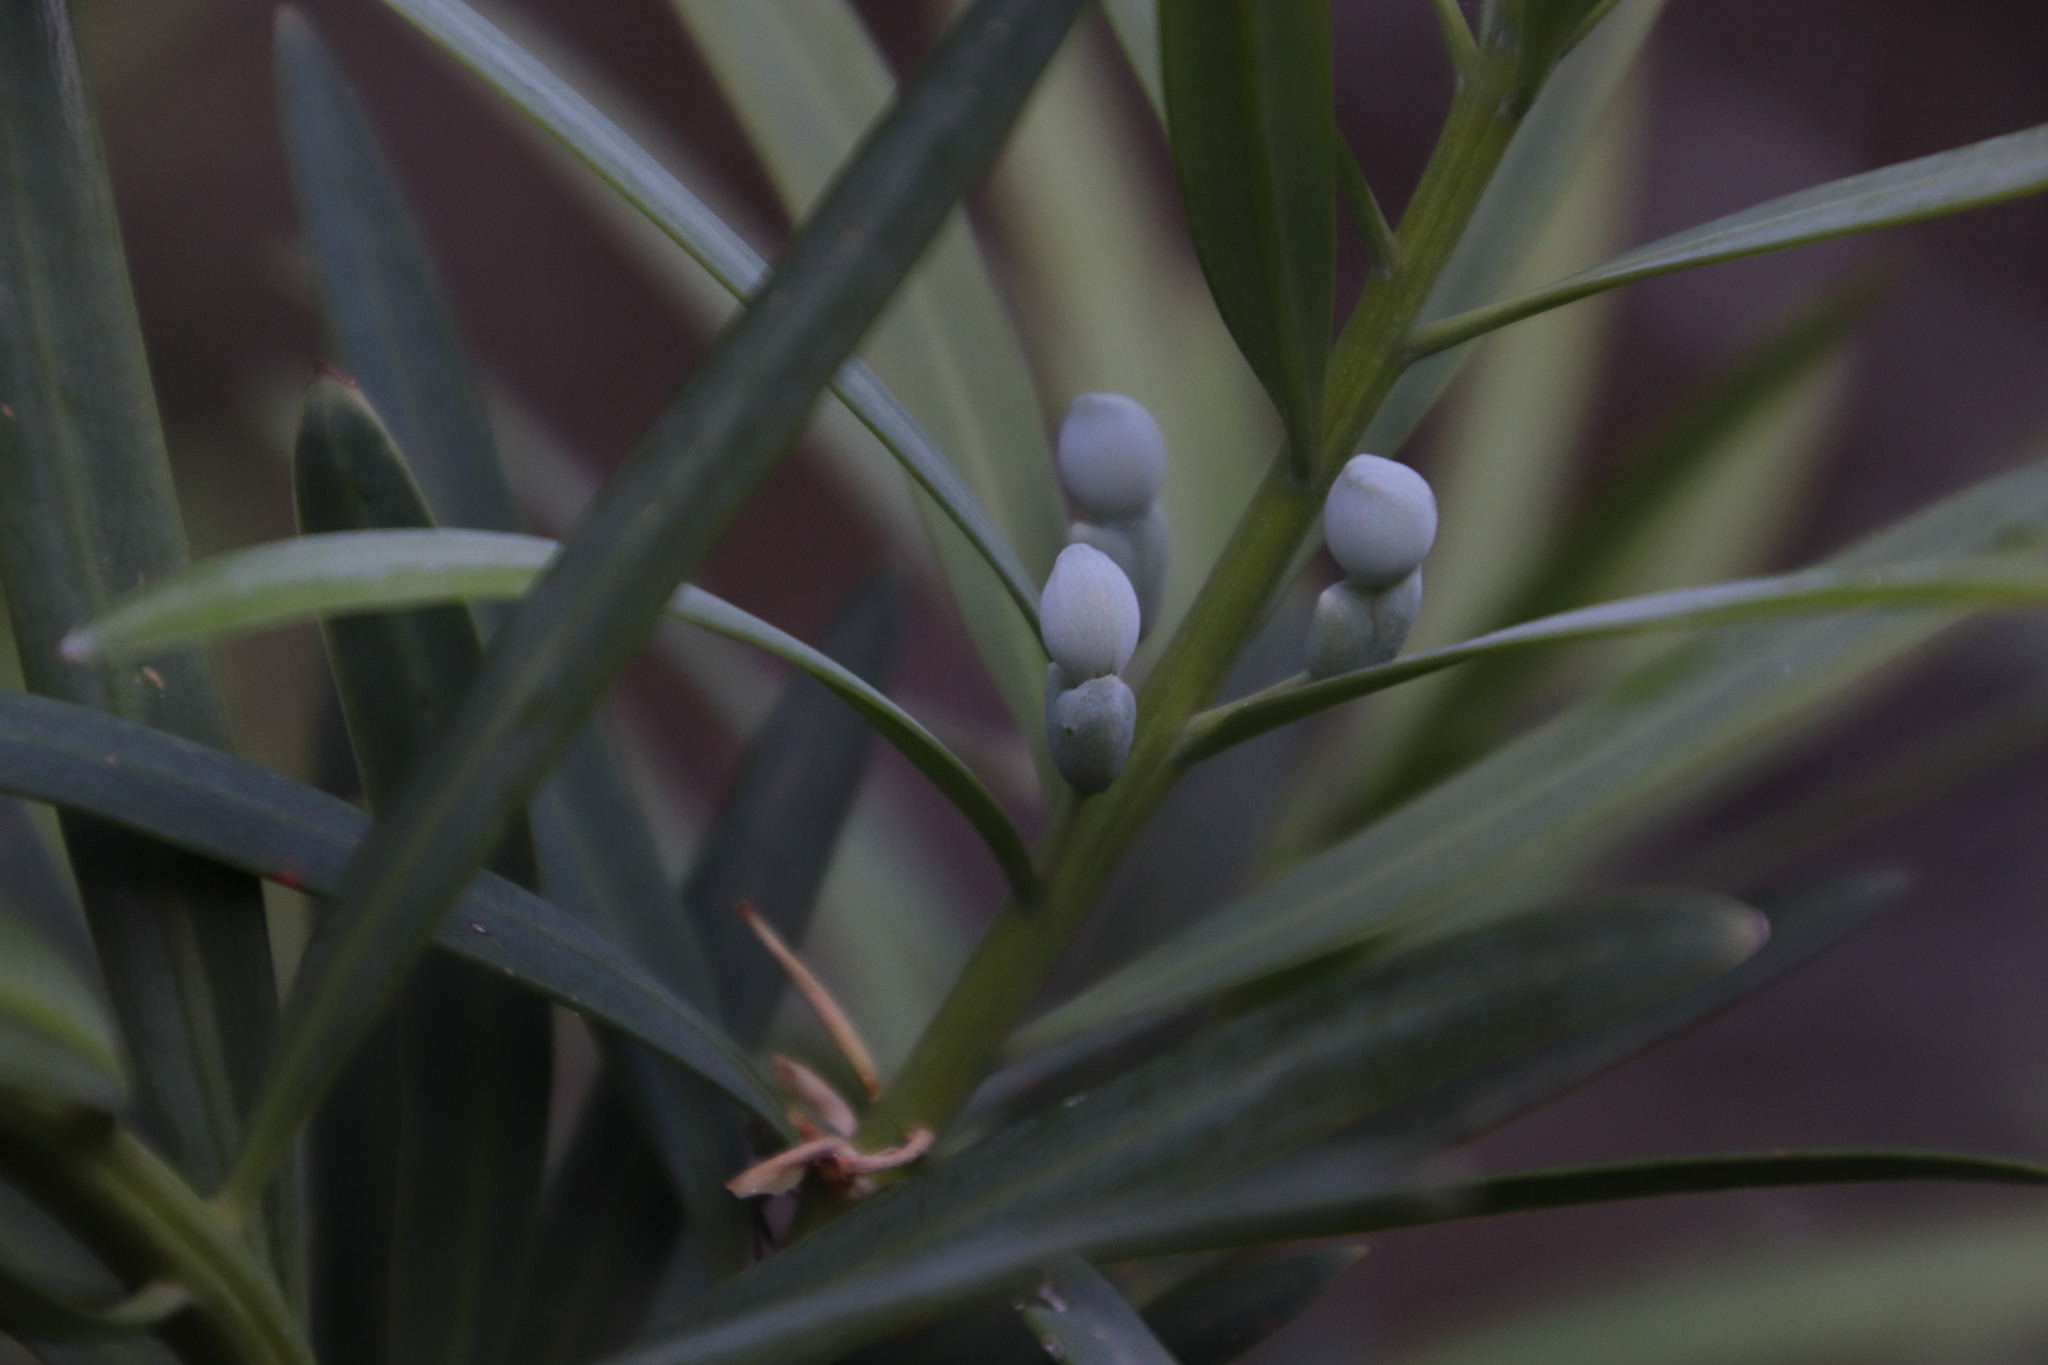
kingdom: Plantae
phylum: Tracheophyta
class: Pinopsida
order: Pinales
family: Podocarpaceae
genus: Podocarpus
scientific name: Podocarpus elongatus
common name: Breede river yellowwood
